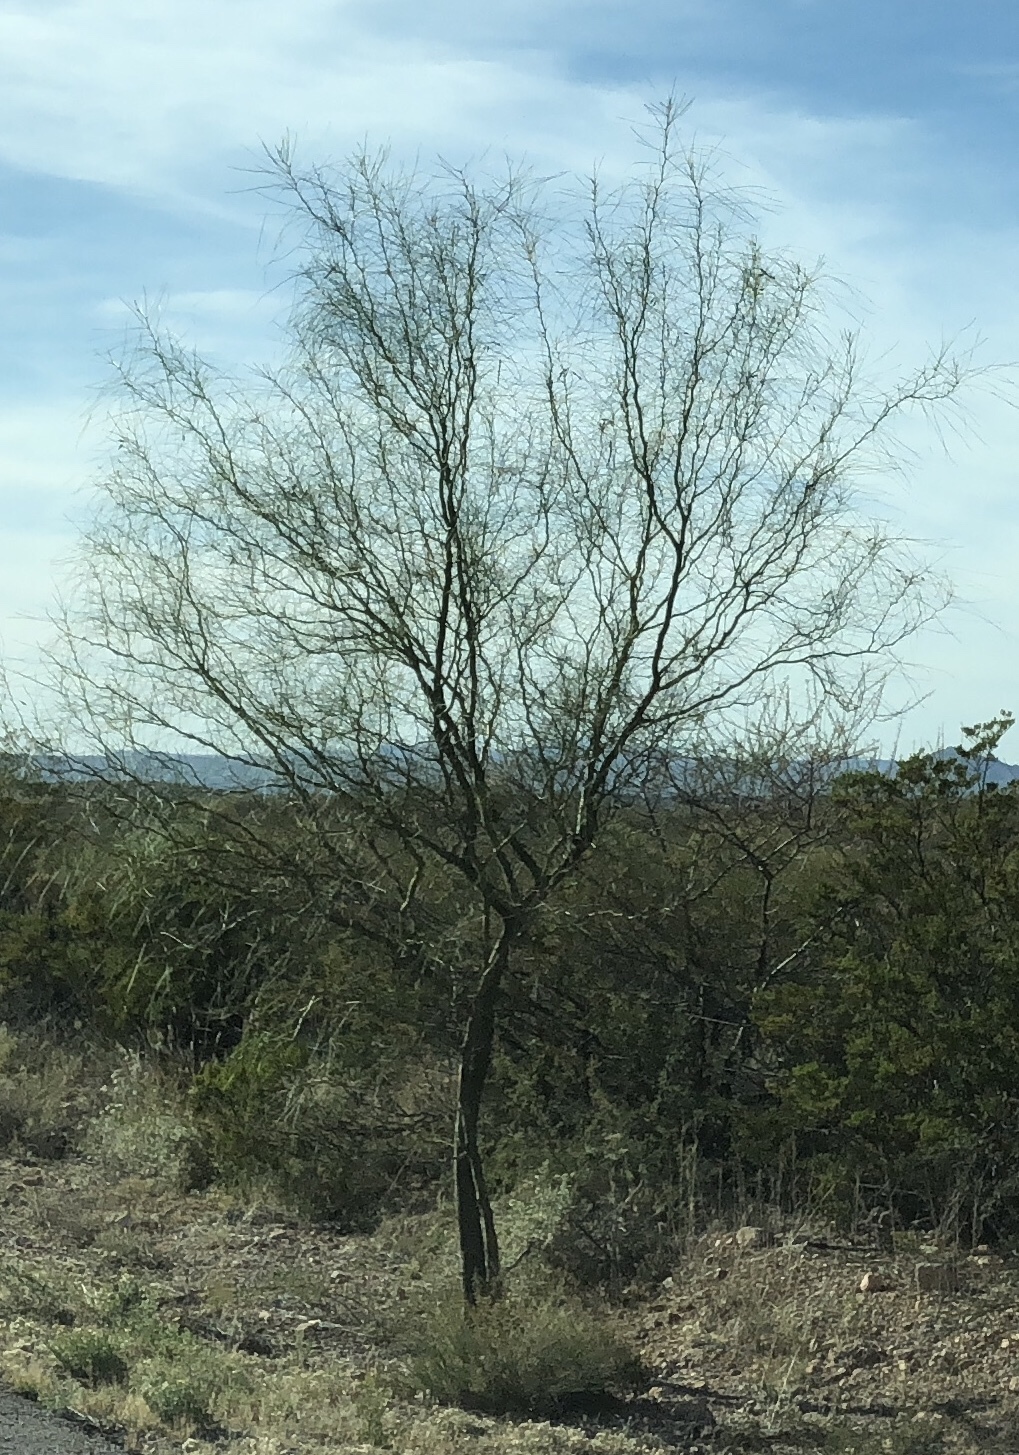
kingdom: Plantae
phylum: Tracheophyta
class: Magnoliopsida
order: Fabales
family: Fabaceae
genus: Parkinsonia
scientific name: Parkinsonia aculeata
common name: Jerusalem thorn
